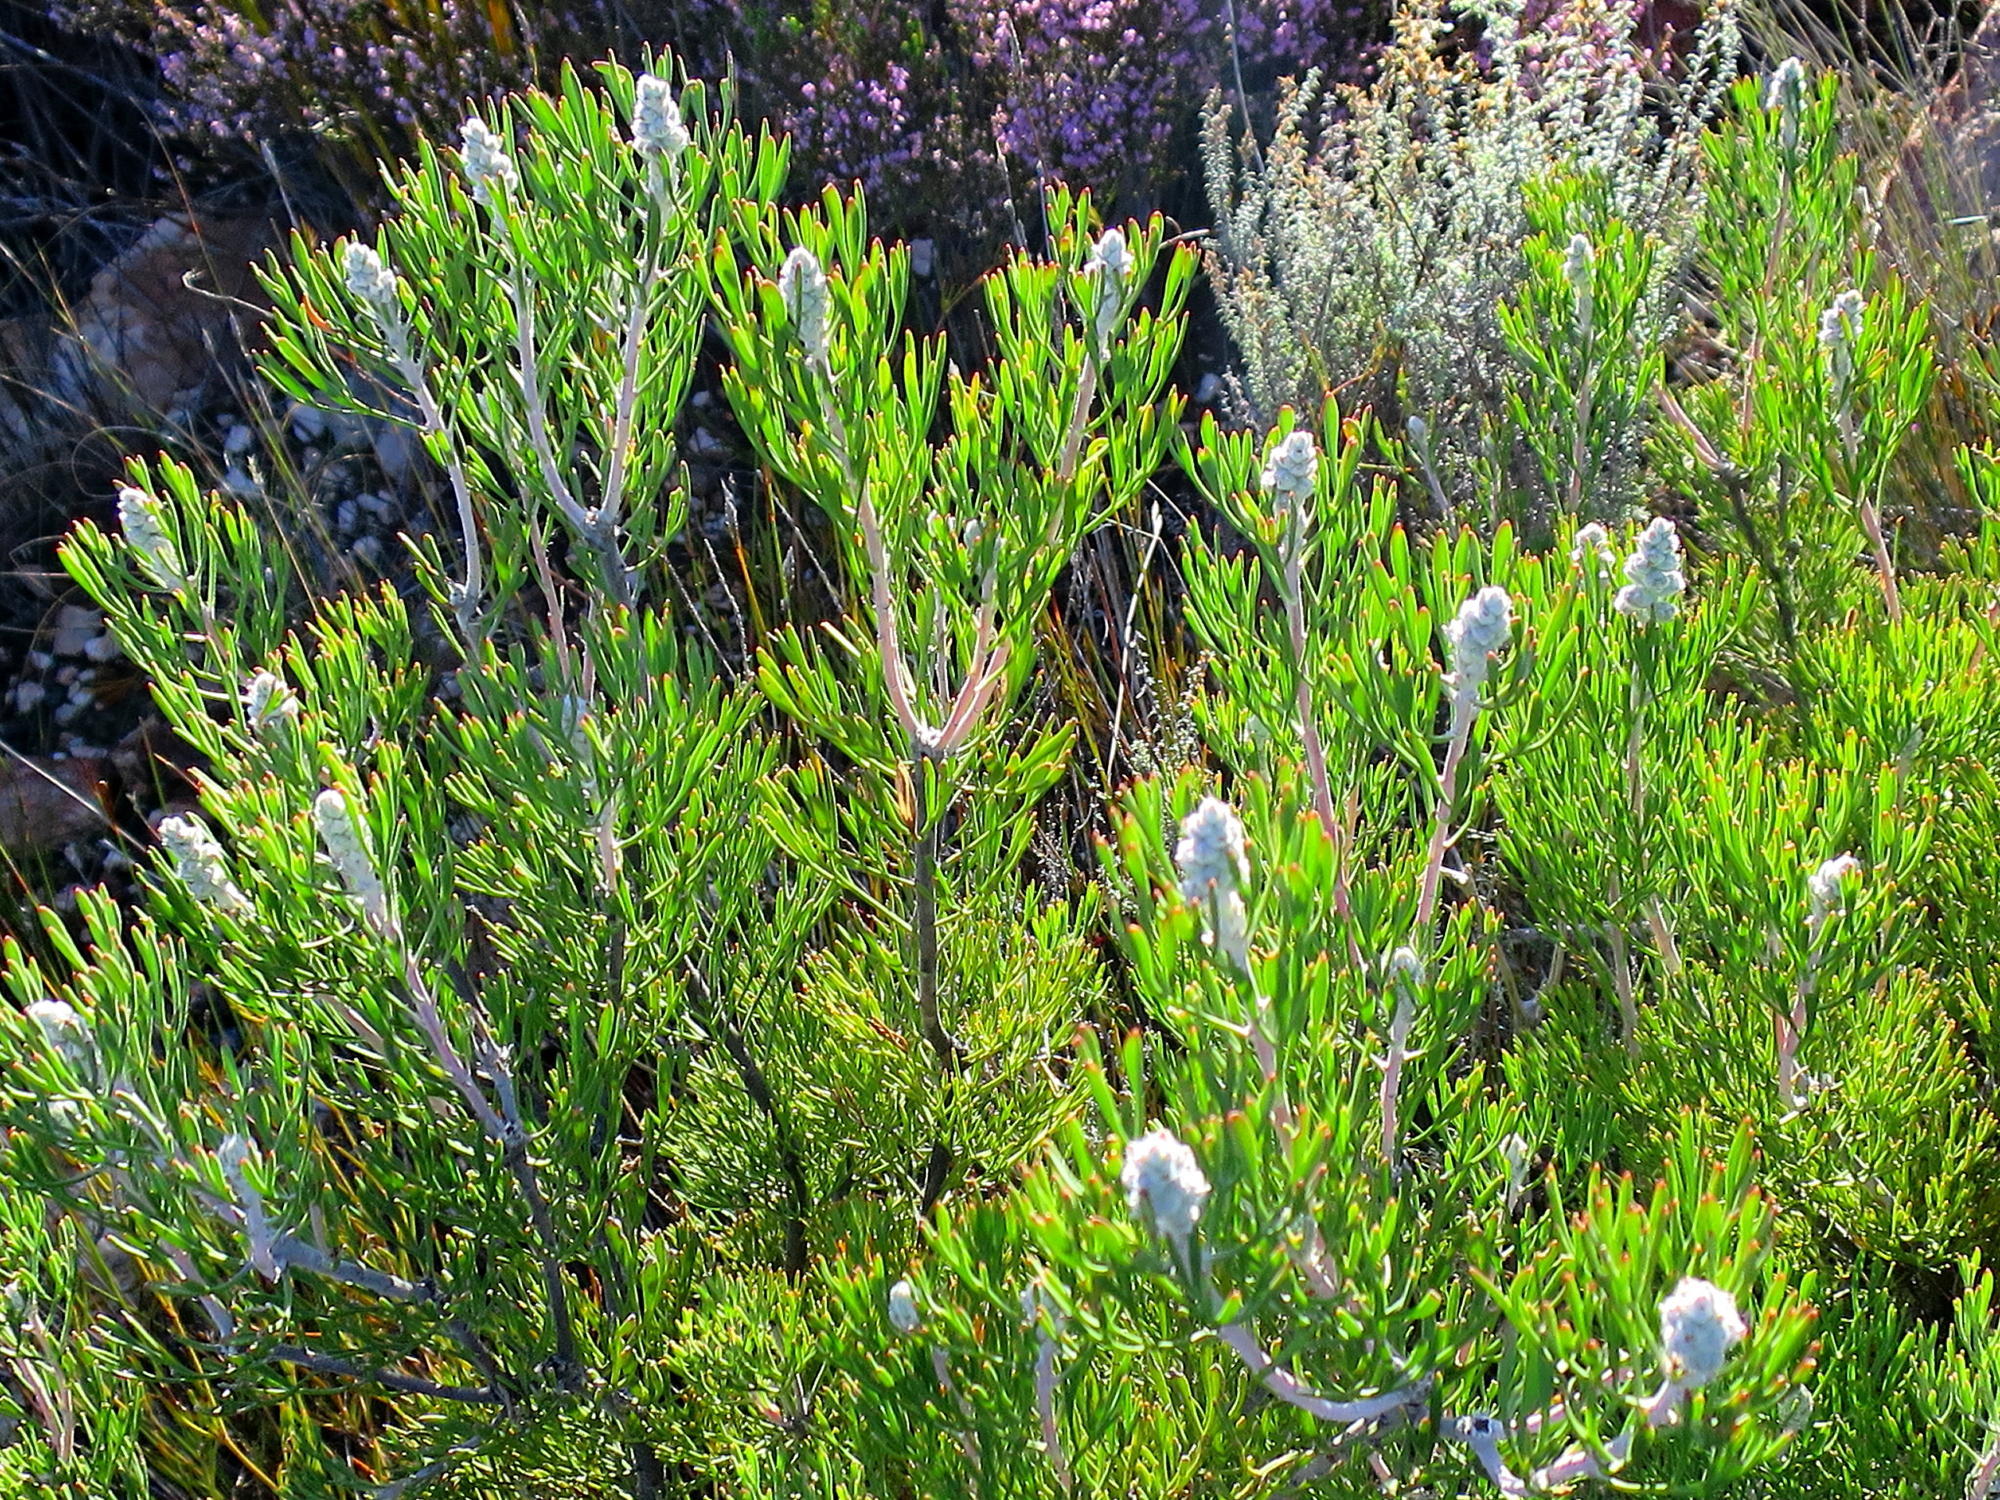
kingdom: Plantae
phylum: Tracheophyta
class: Magnoliopsida
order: Proteales
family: Proteaceae
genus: Paranomus
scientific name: Paranomus dregei
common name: Scented sceptre
